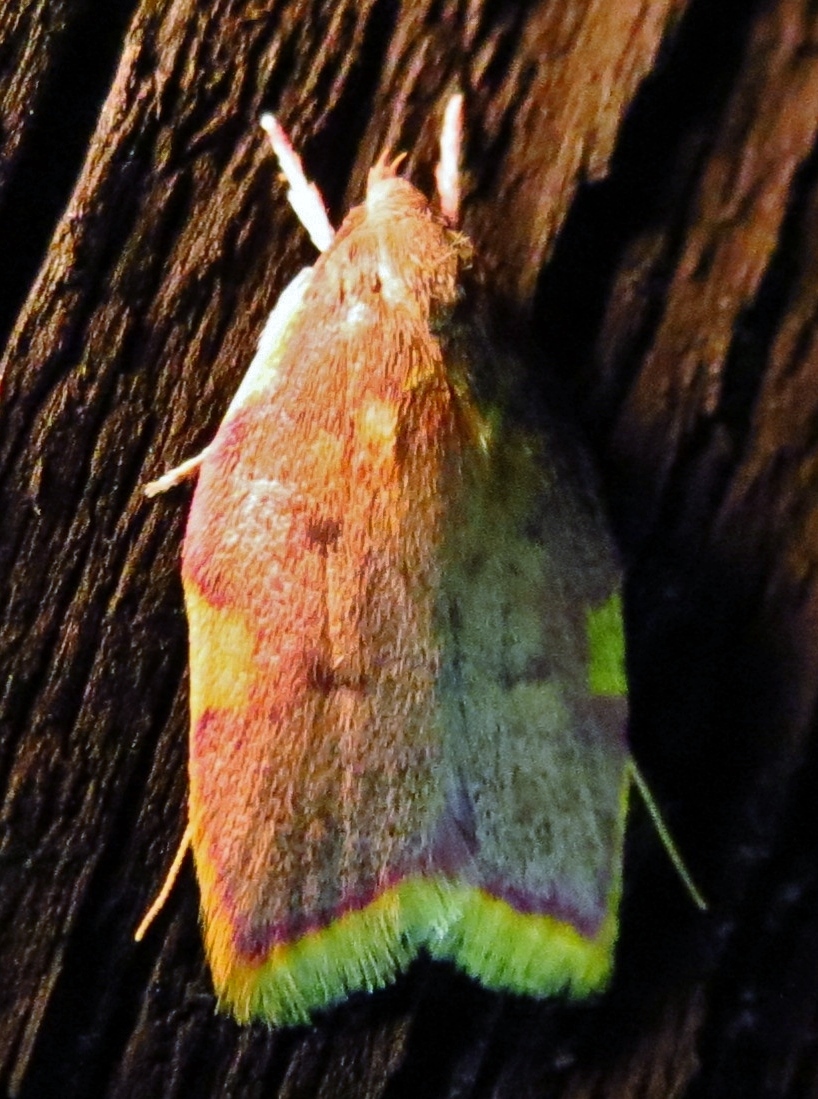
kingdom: Animalia
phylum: Arthropoda
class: Insecta
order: Lepidoptera
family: Peleopodidae
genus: Carcina
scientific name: Carcina quercana
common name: Moth
